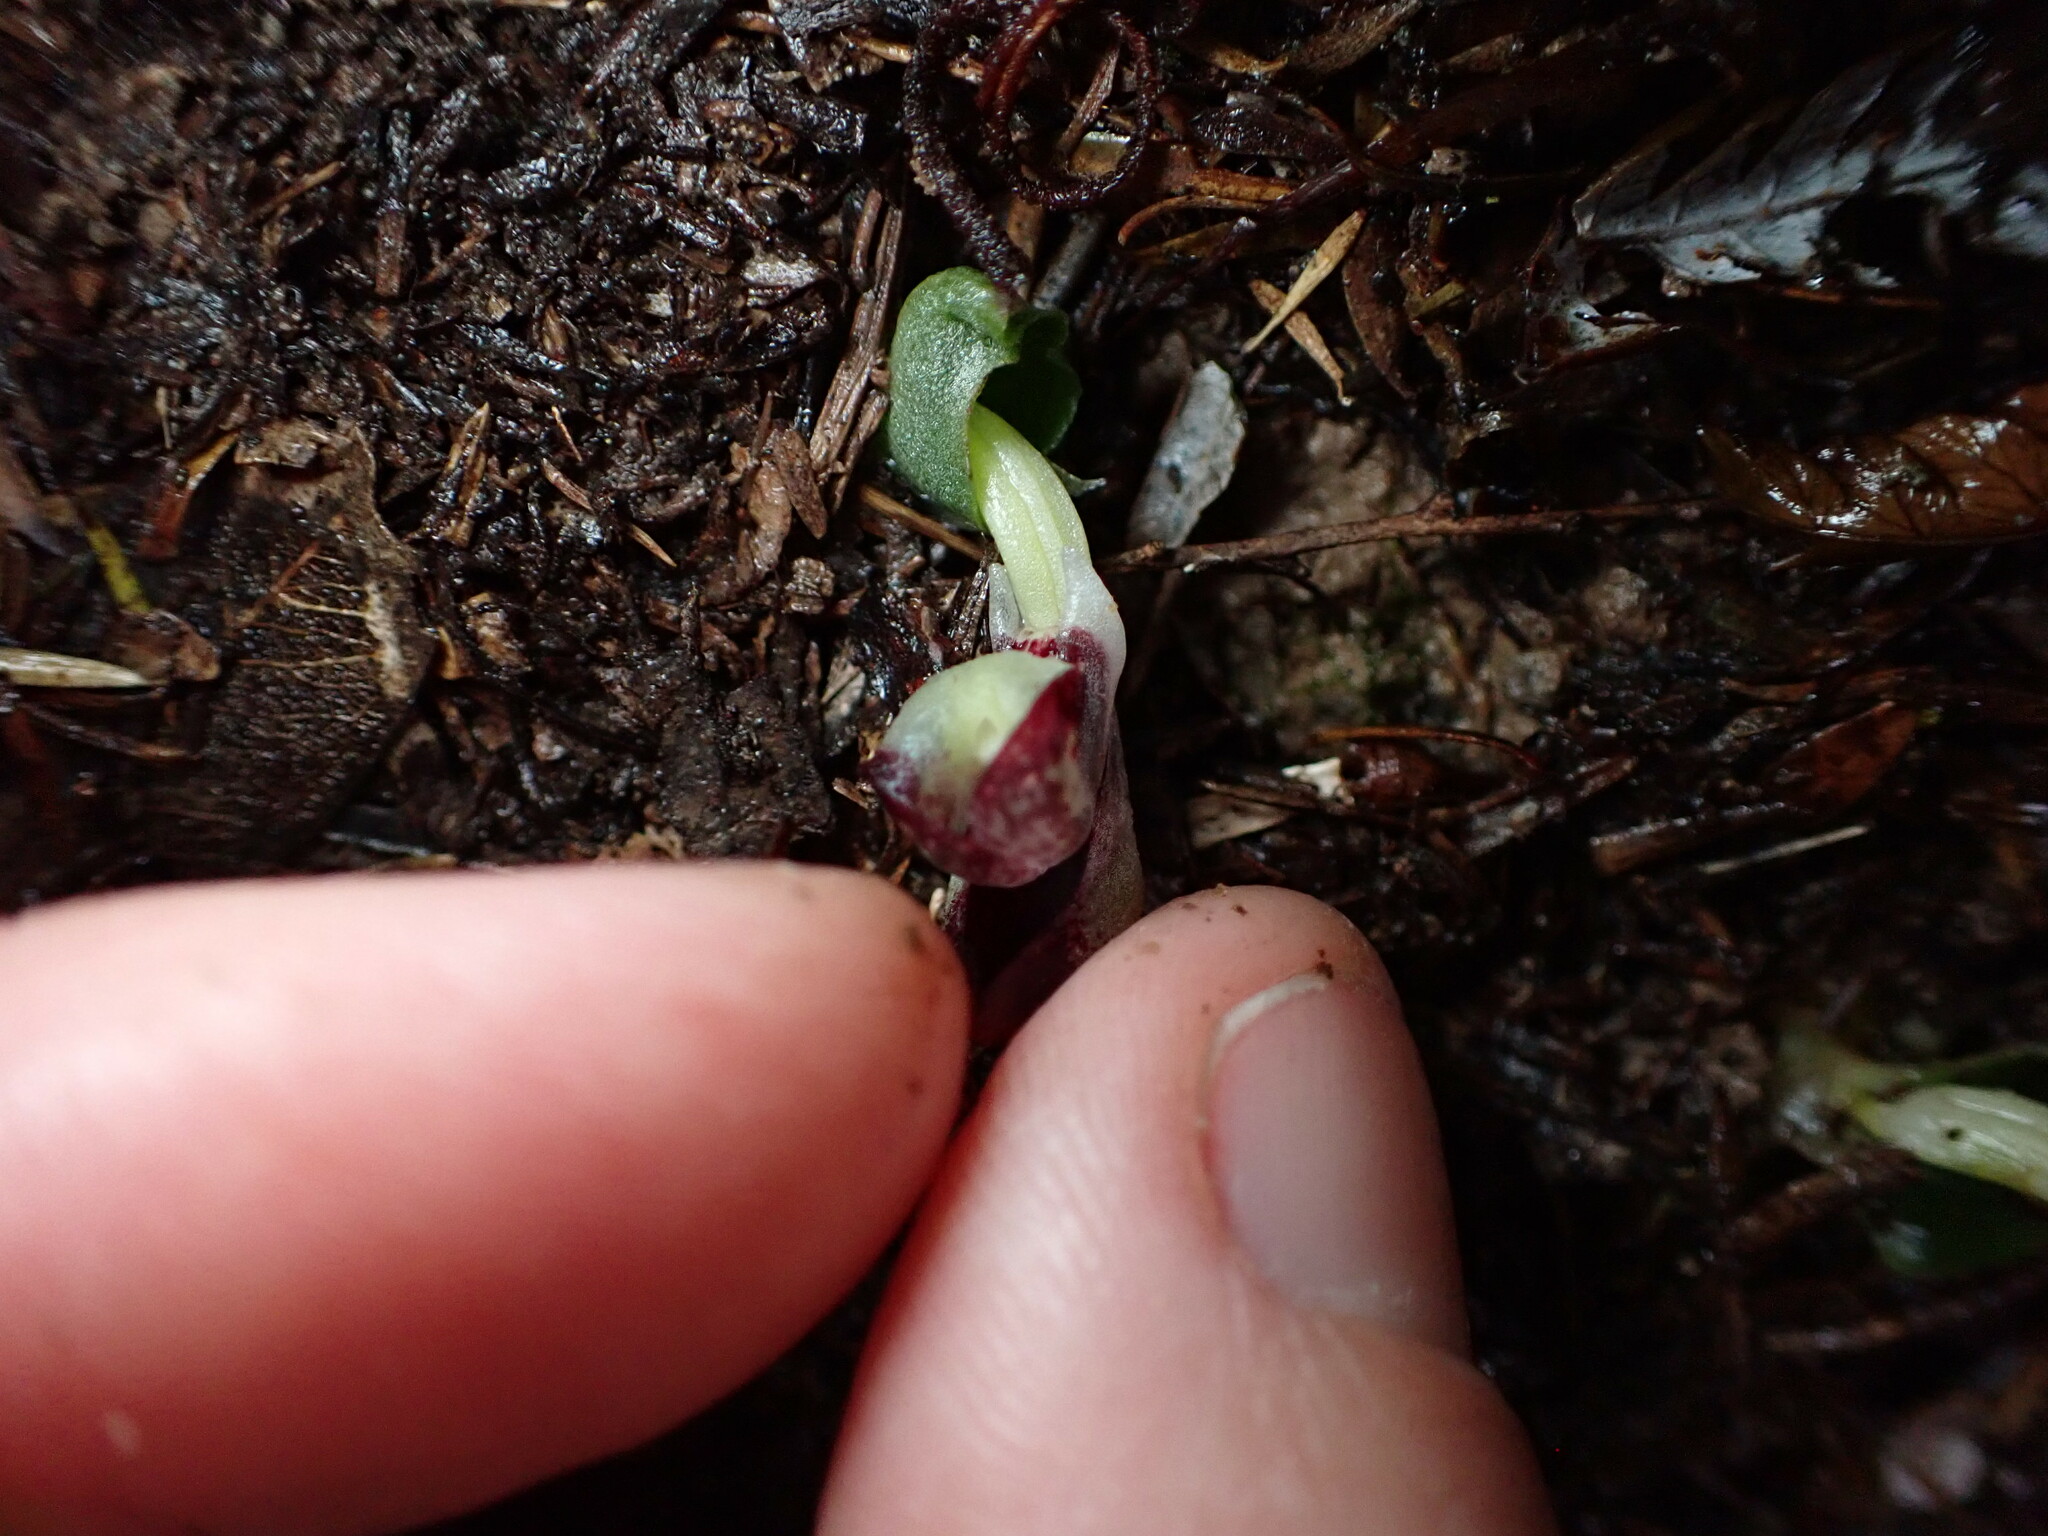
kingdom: Plantae
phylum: Tracheophyta
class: Liliopsida
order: Asparagales
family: Orchidaceae
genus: Corybas
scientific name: Corybas cheesemanii
